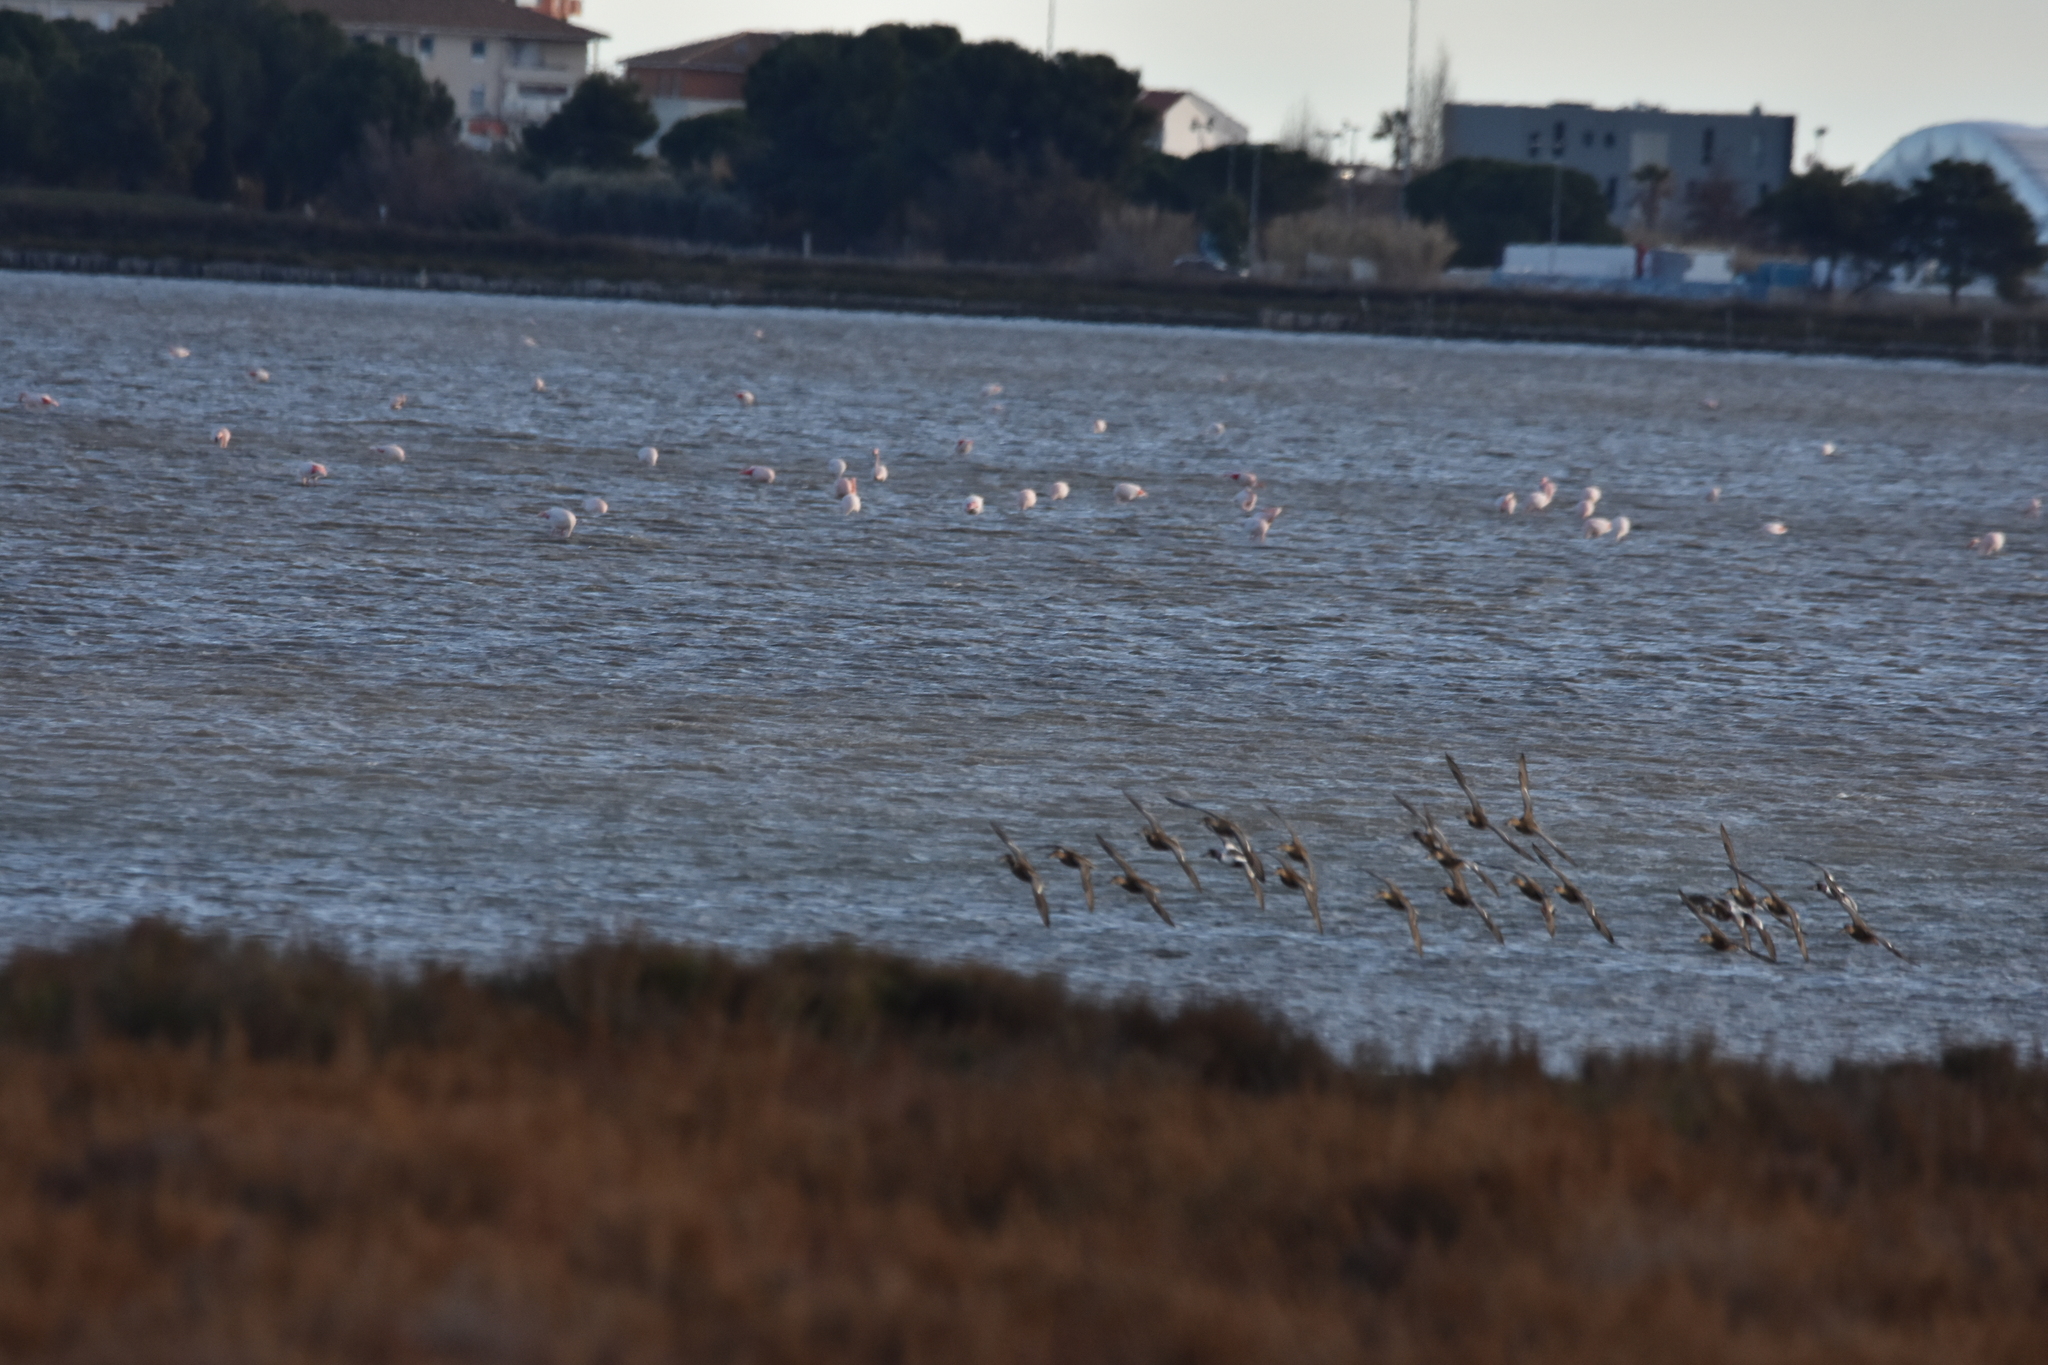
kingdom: Animalia
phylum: Chordata
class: Aves
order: Anseriformes
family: Anatidae
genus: Spatula
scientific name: Spatula clypeata
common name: Northern shoveler
